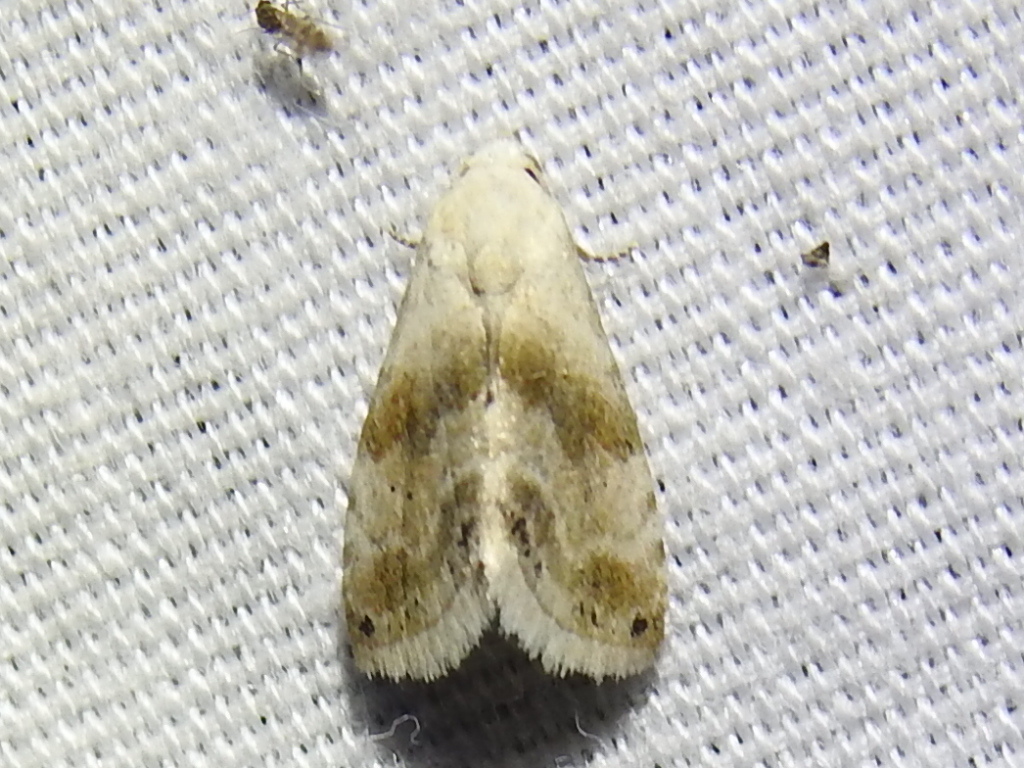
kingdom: Animalia
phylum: Arthropoda
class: Insecta
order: Lepidoptera
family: Noctuidae
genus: Eublemma
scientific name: Eublemma minima
